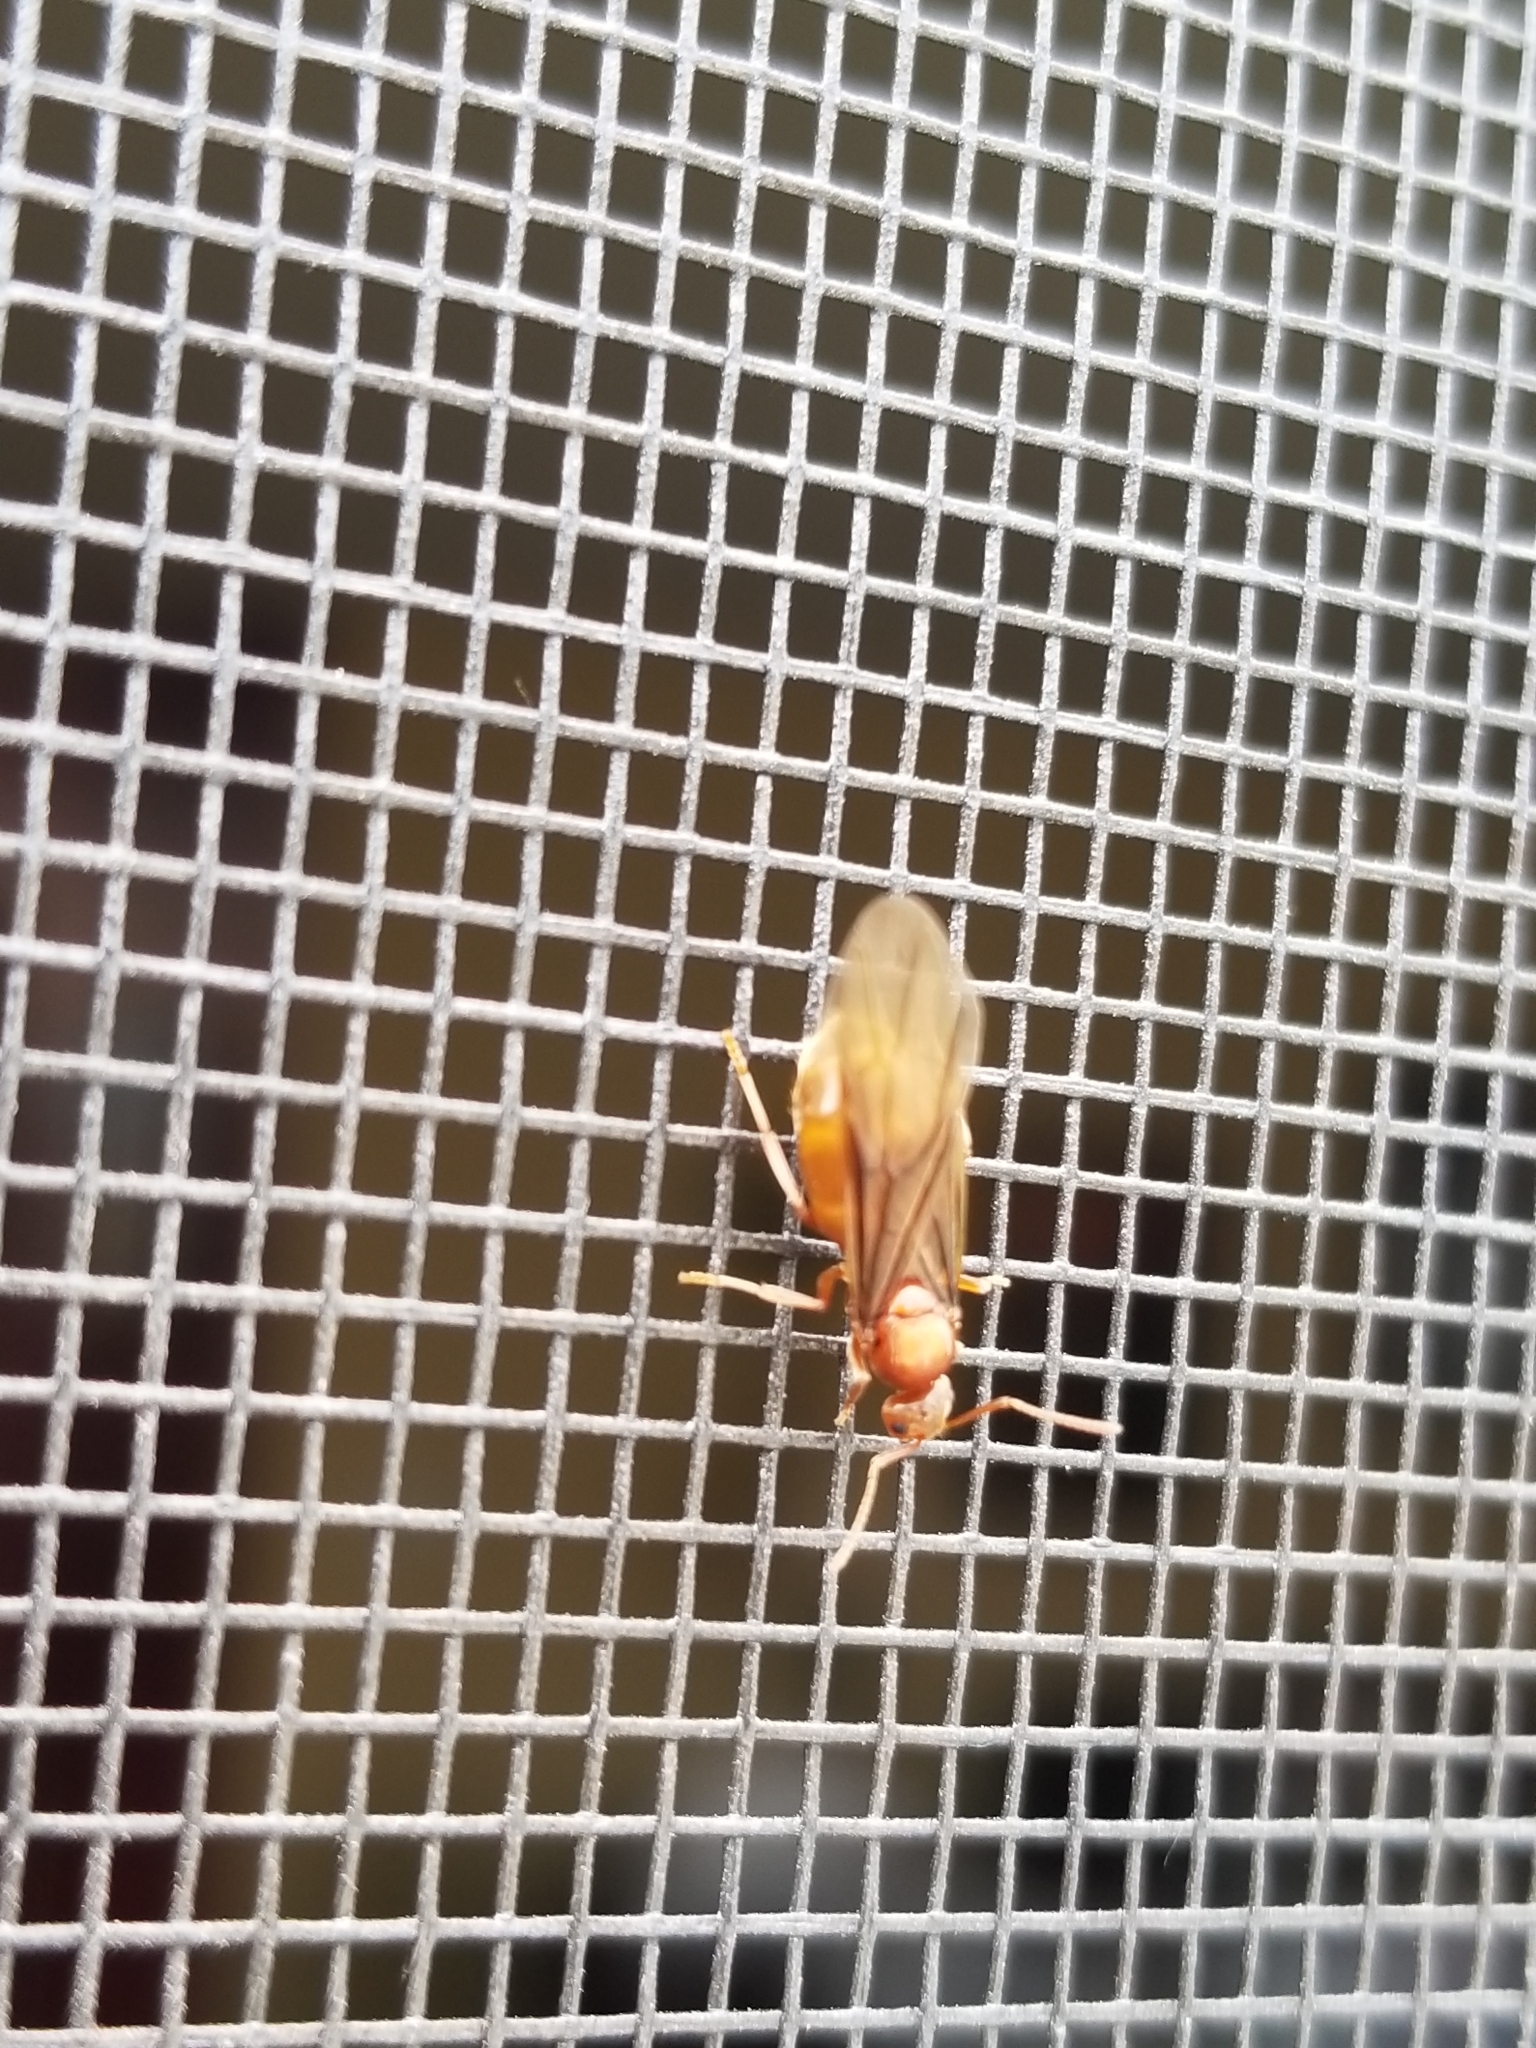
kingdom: Animalia
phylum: Arthropoda
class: Insecta
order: Hymenoptera
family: Formicidae
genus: Prenolepis
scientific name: Prenolepis imparis
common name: Small honey ant
